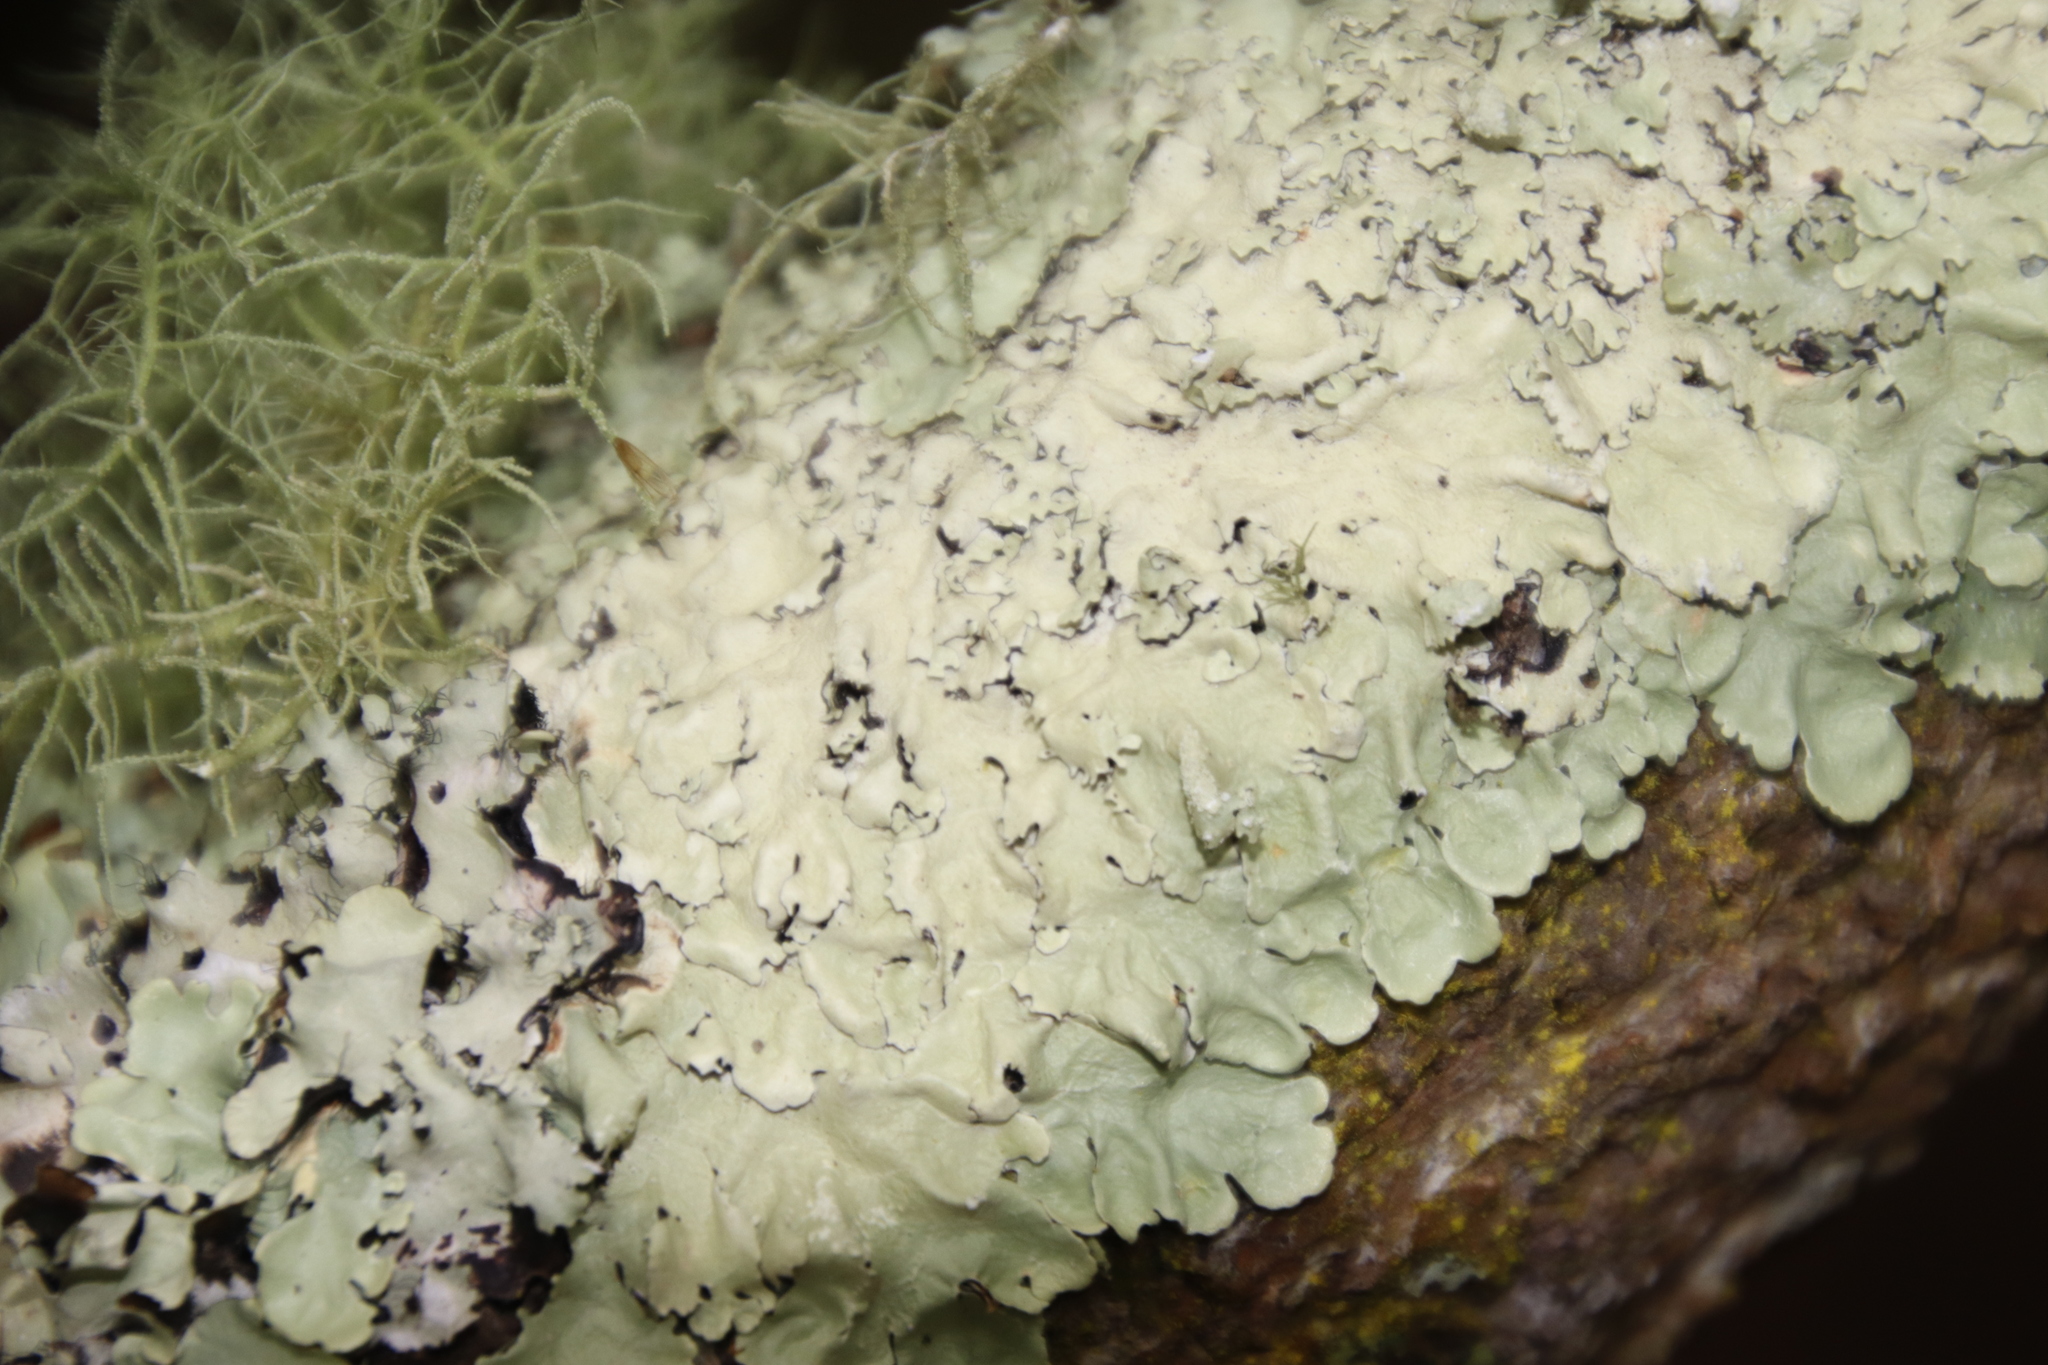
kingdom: Fungi
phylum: Ascomycota
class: Lecanoromycetes
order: Lecanorales
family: Parmeliaceae
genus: Flavoparmelia
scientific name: Flavoparmelia soredians
